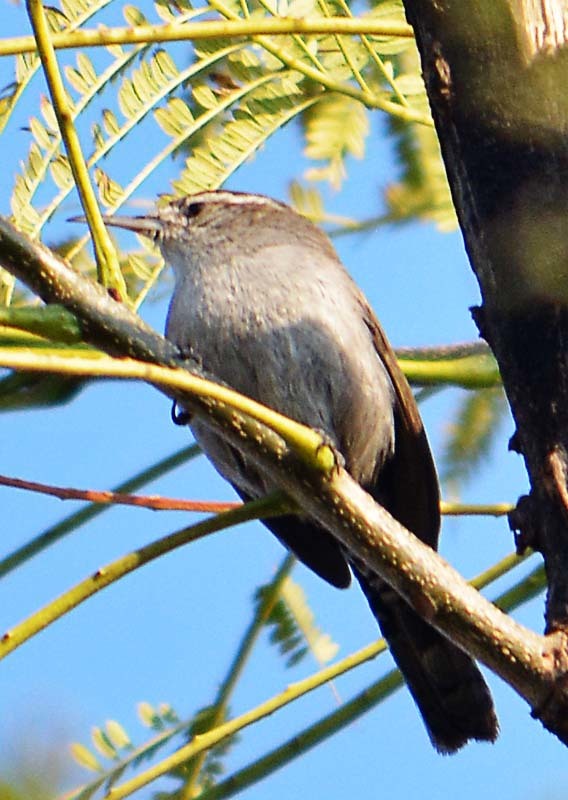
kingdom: Animalia
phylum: Chordata
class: Aves
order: Passeriformes
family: Troglodytidae
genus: Thryomanes
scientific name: Thryomanes bewickii
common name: Bewick's wren
